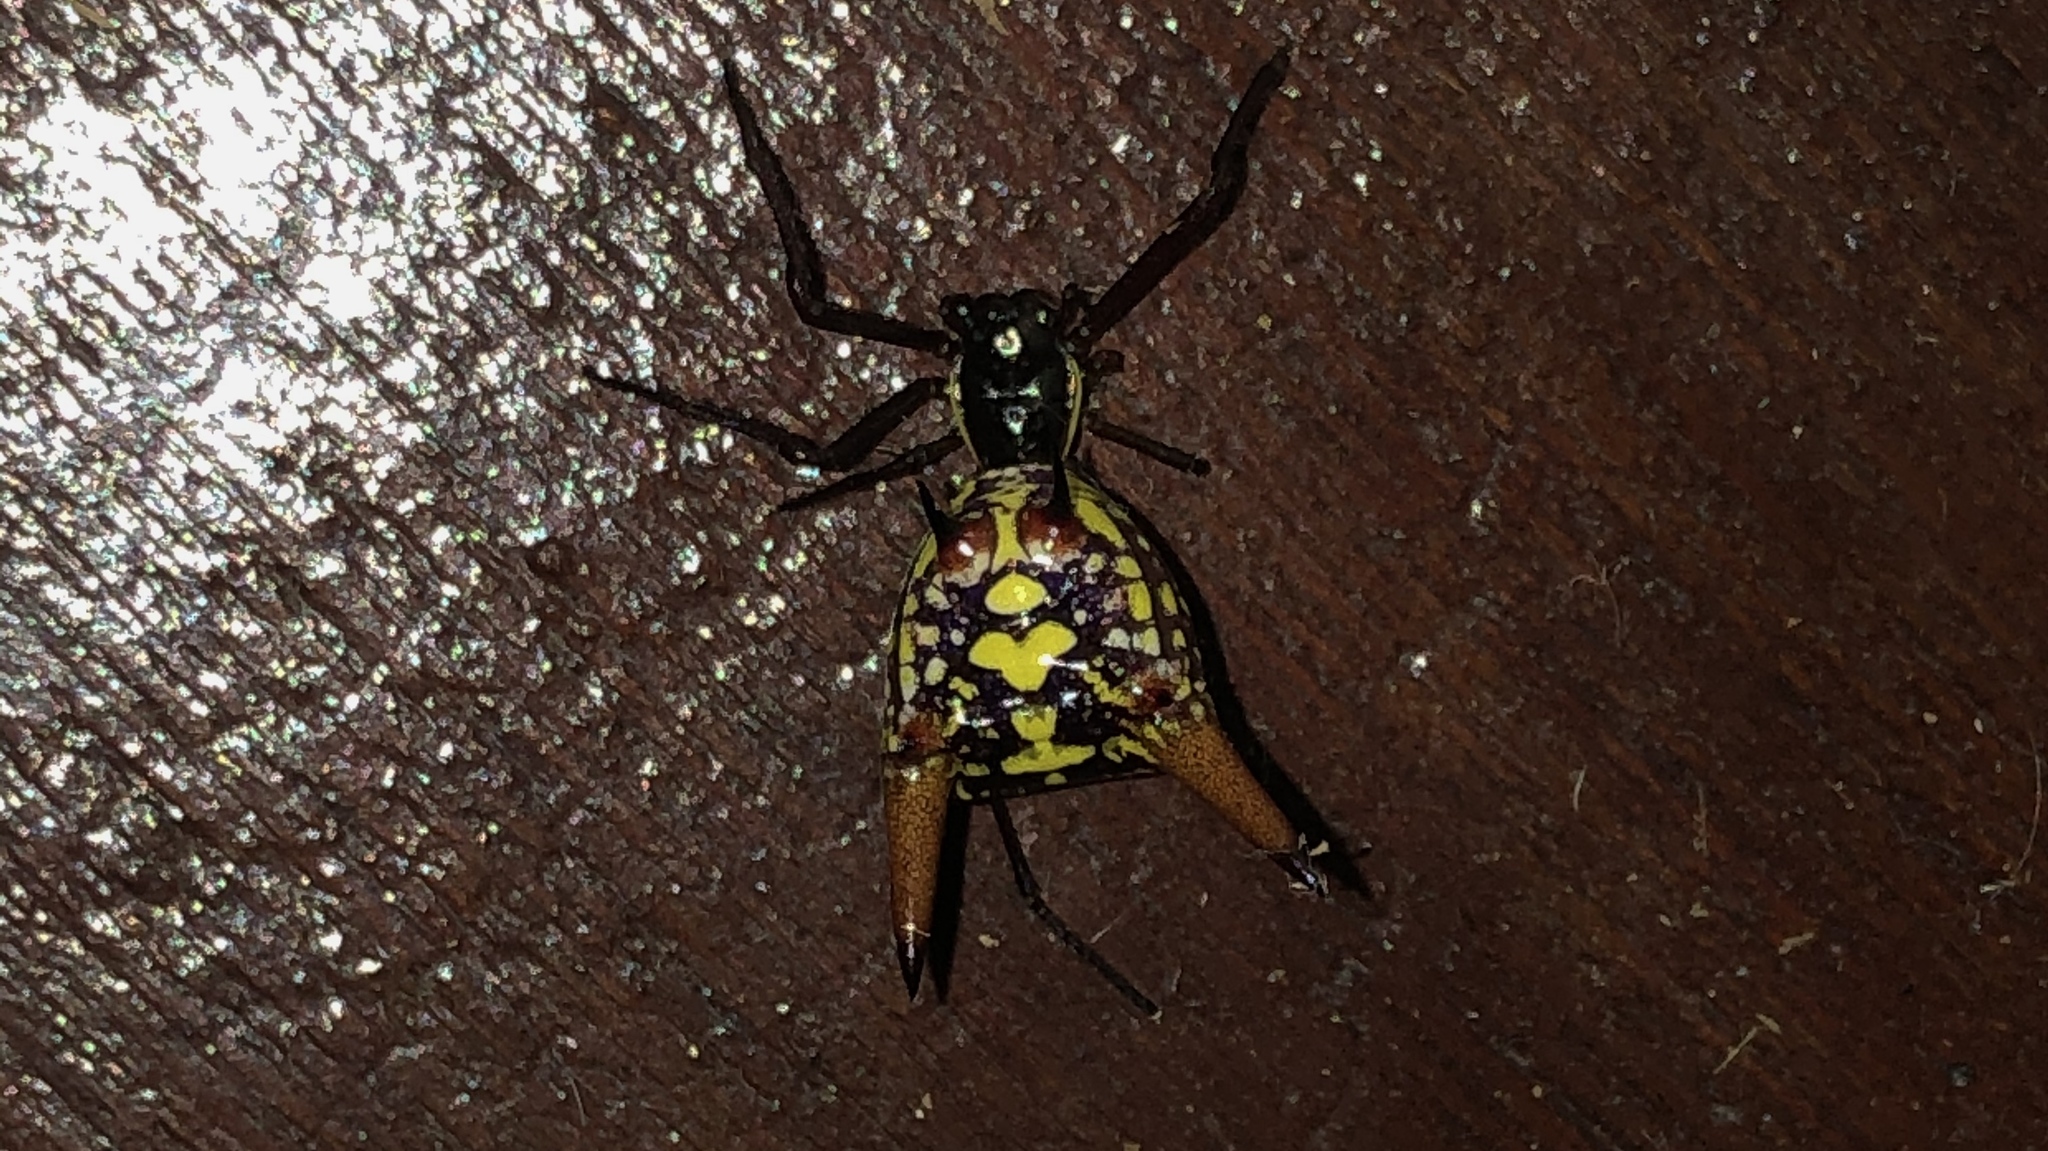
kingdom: Animalia
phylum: Arthropoda
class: Arachnida
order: Araneae
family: Araneidae
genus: Micrathena
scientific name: Micrathena sexspinosa
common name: Orb weavers
